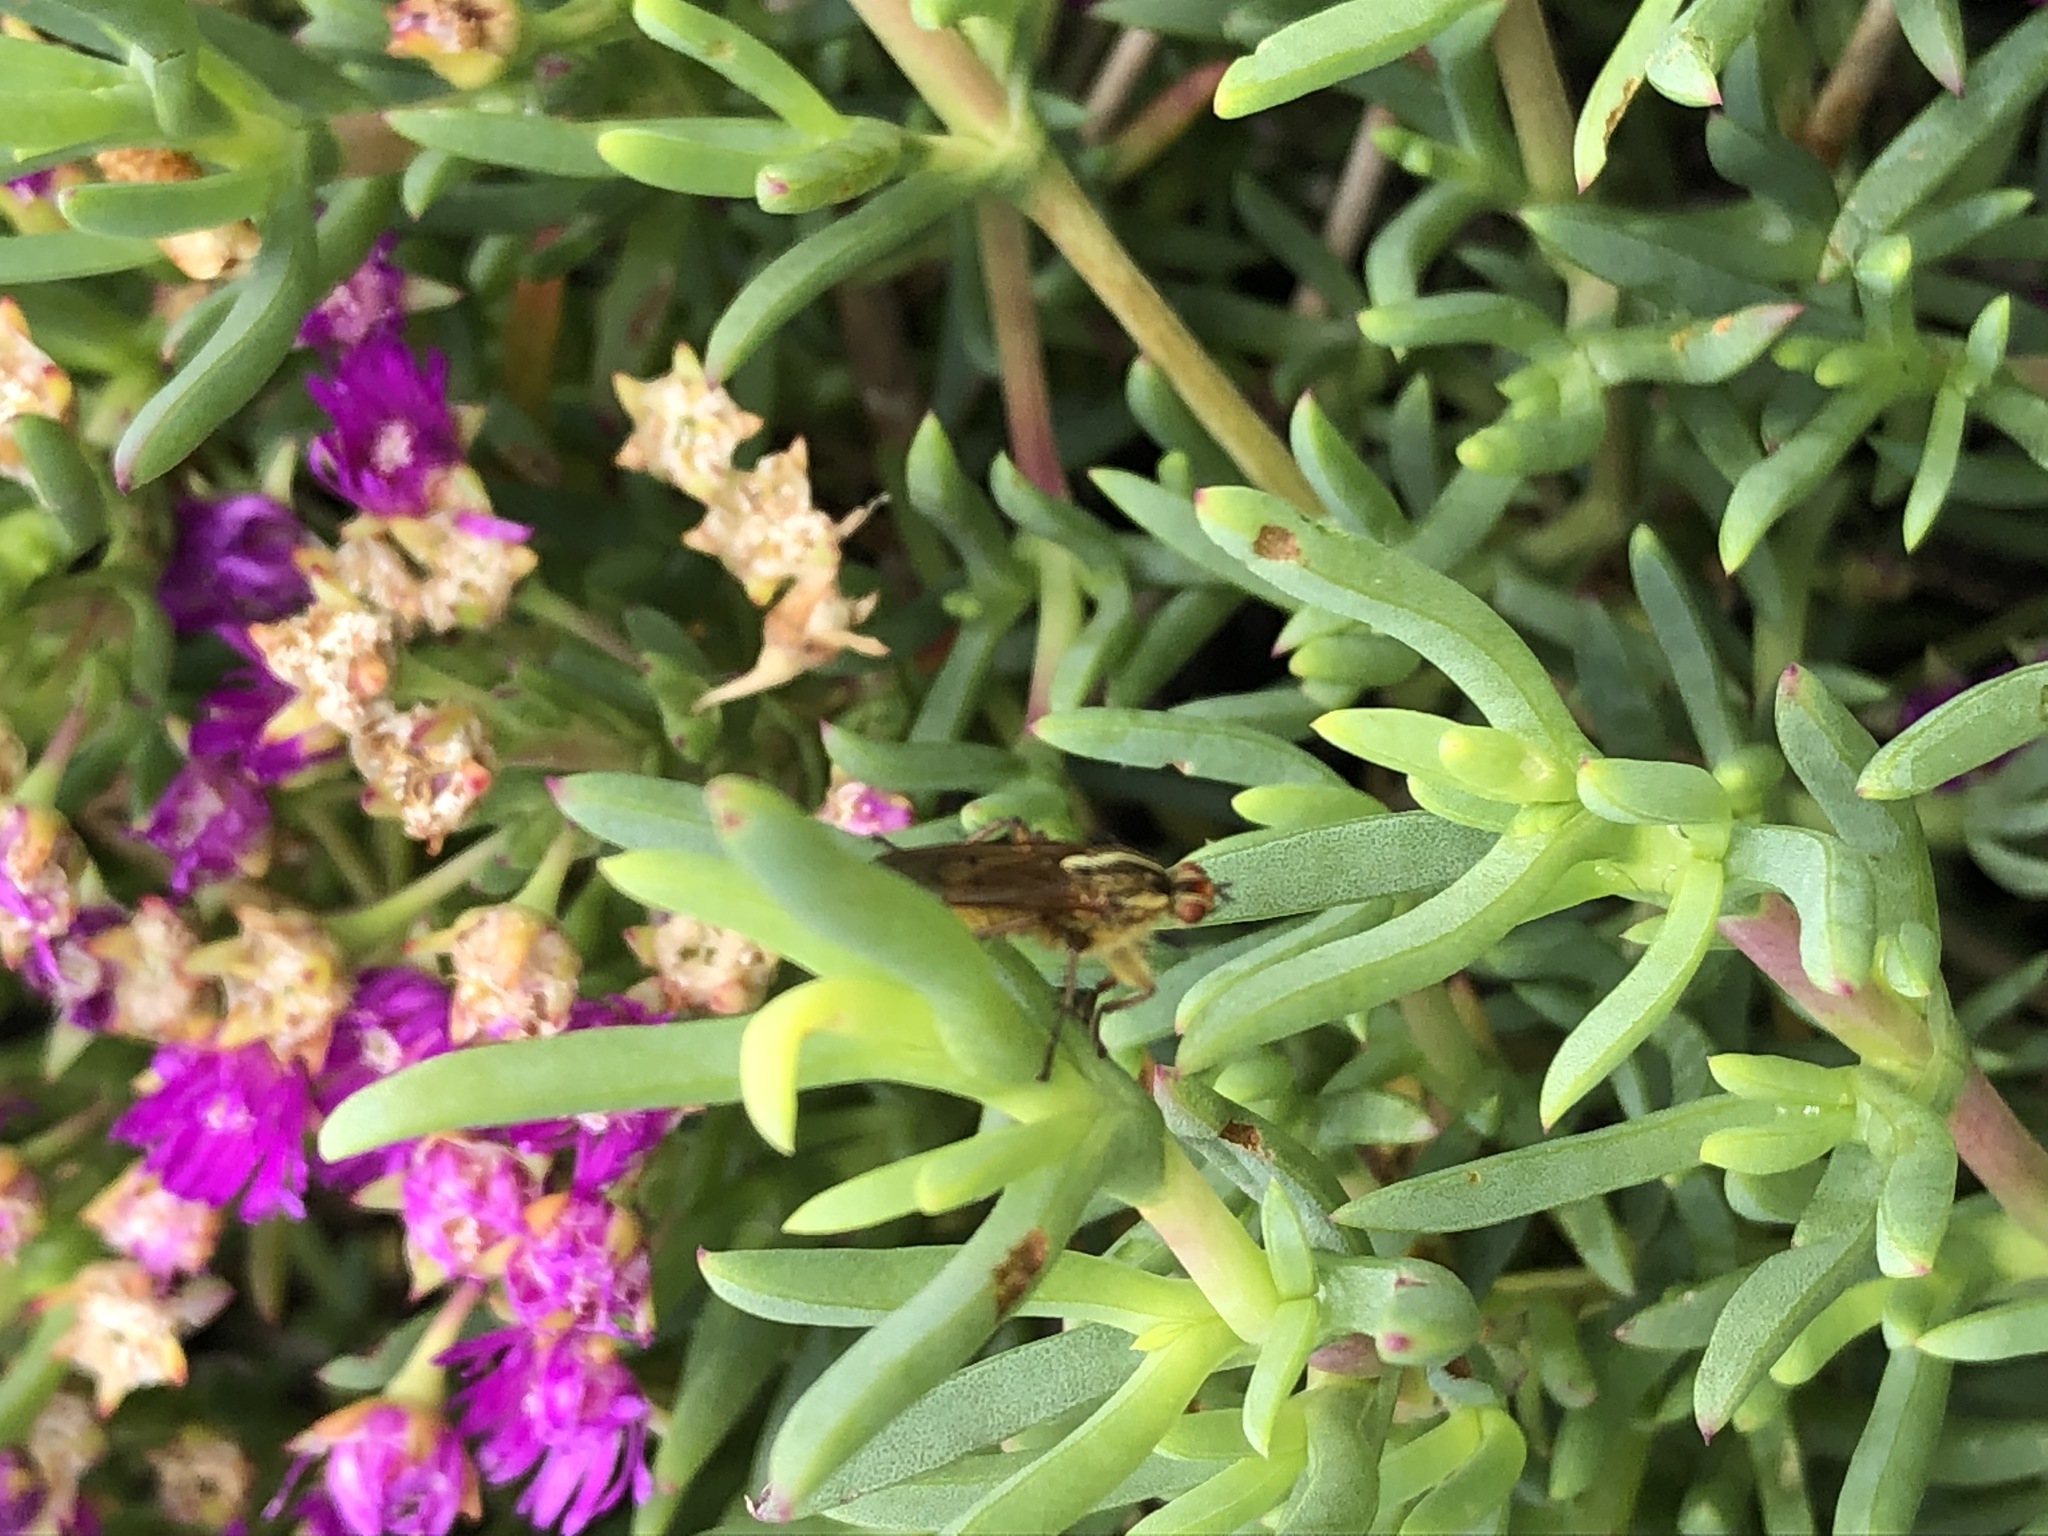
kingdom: Animalia
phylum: Arthropoda
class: Insecta
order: Diptera
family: Scathophagidae
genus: Scathophaga
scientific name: Scathophaga soror
